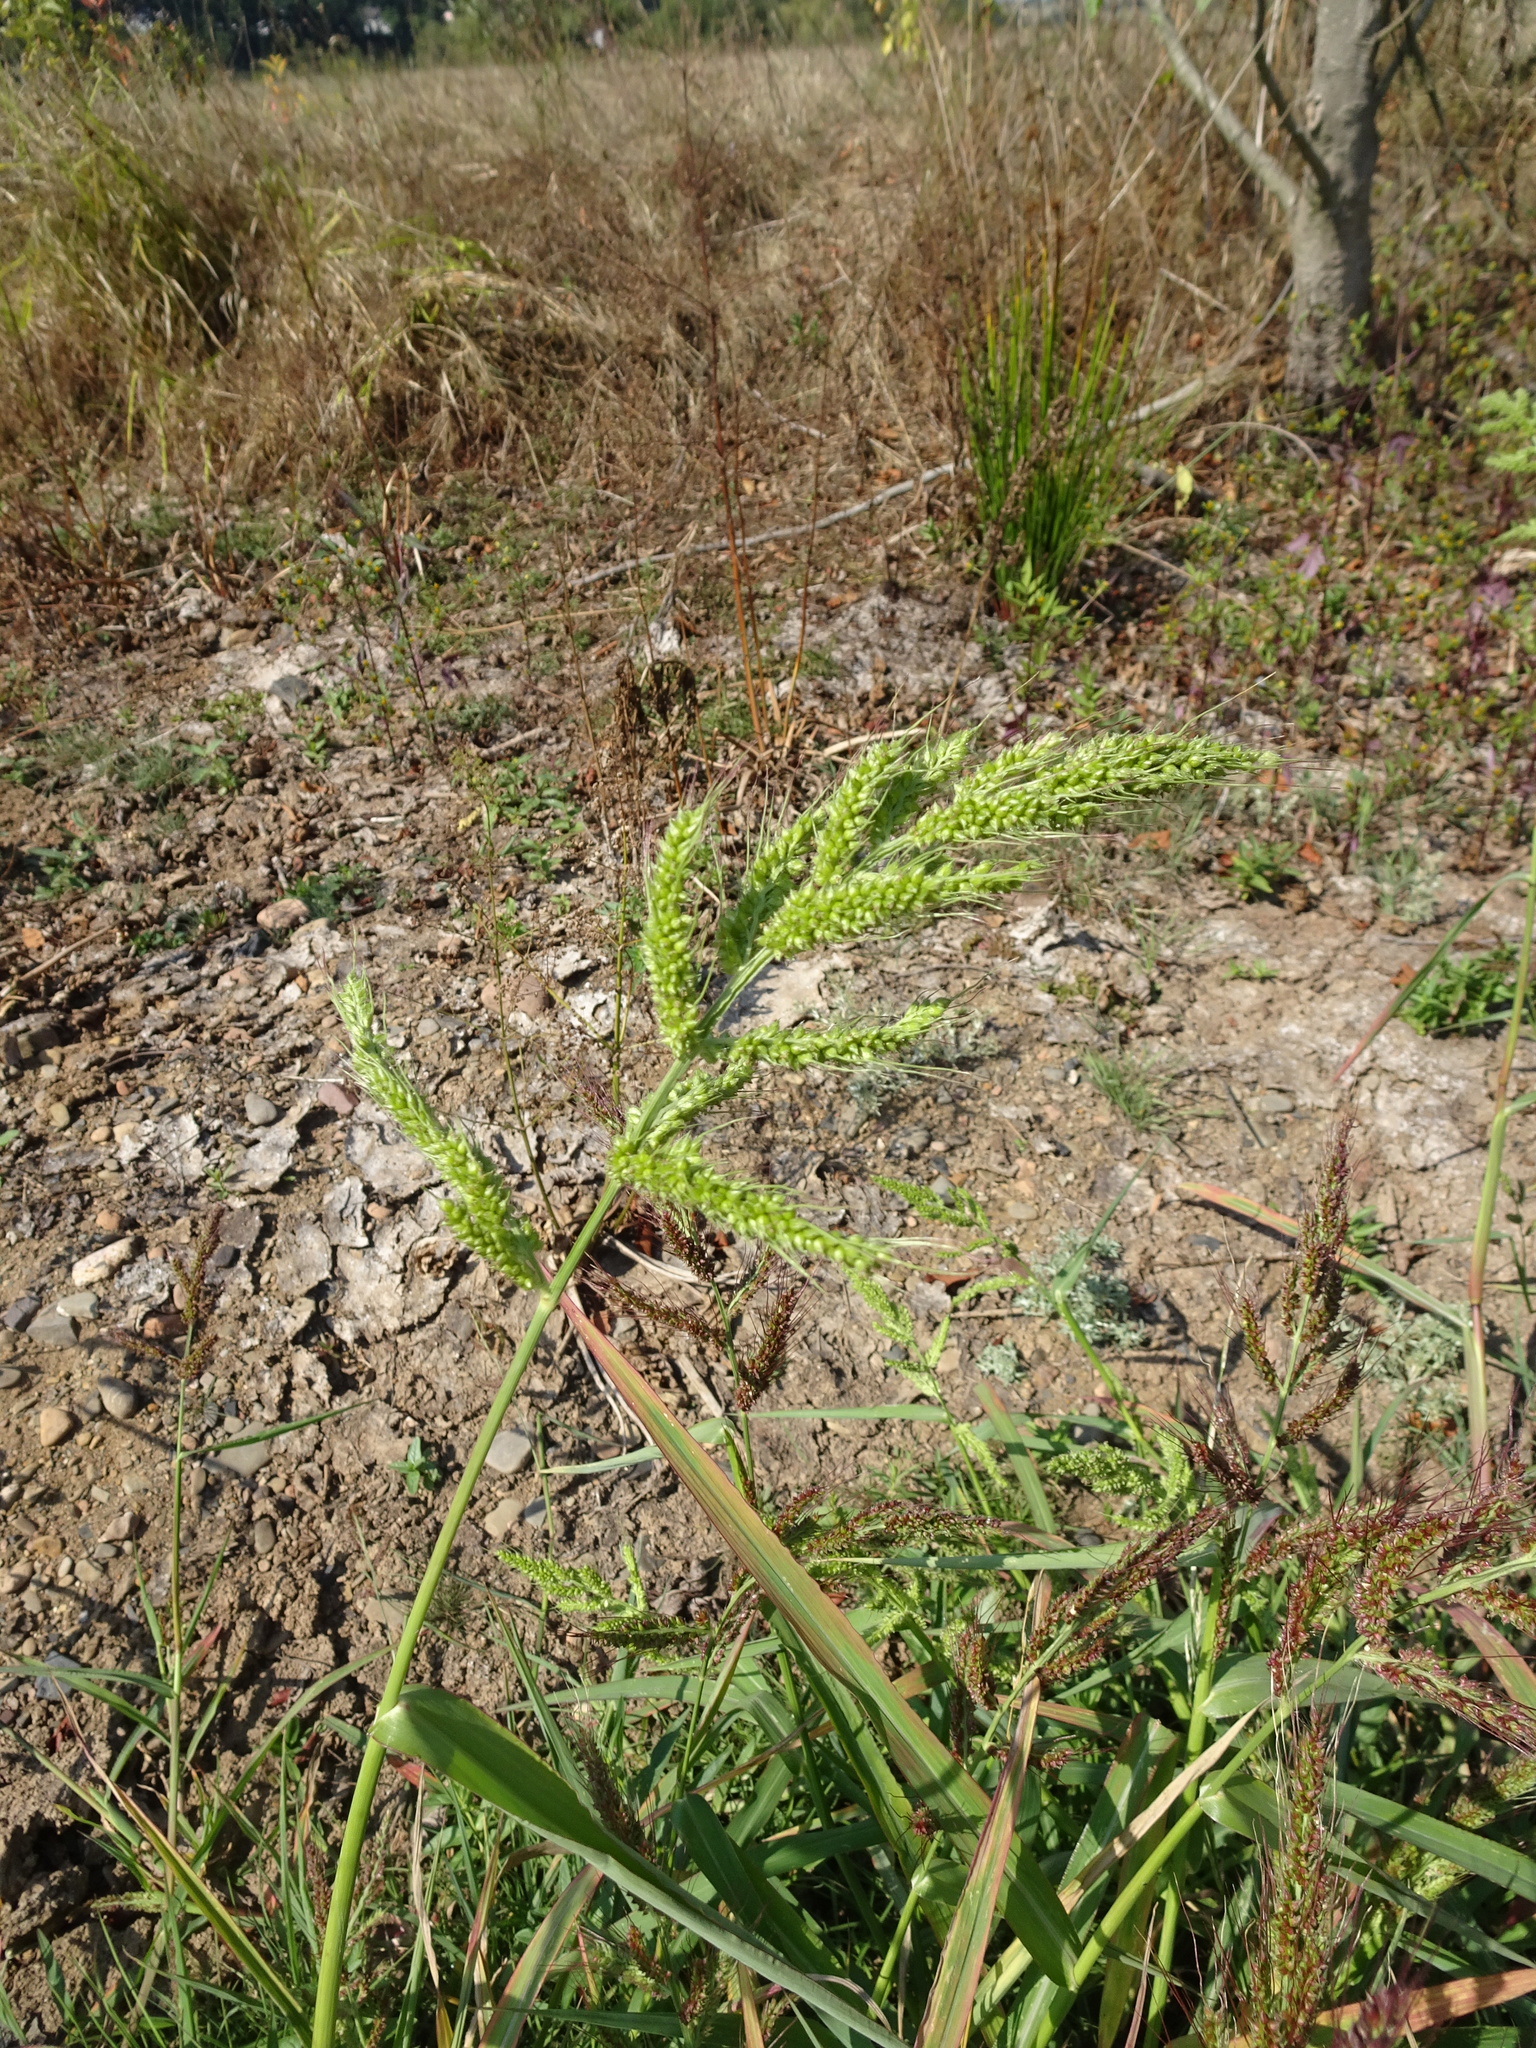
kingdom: Plantae
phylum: Tracheophyta
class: Liliopsida
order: Poales
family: Poaceae
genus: Echinochloa
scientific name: Echinochloa crus-galli
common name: Cockspur
